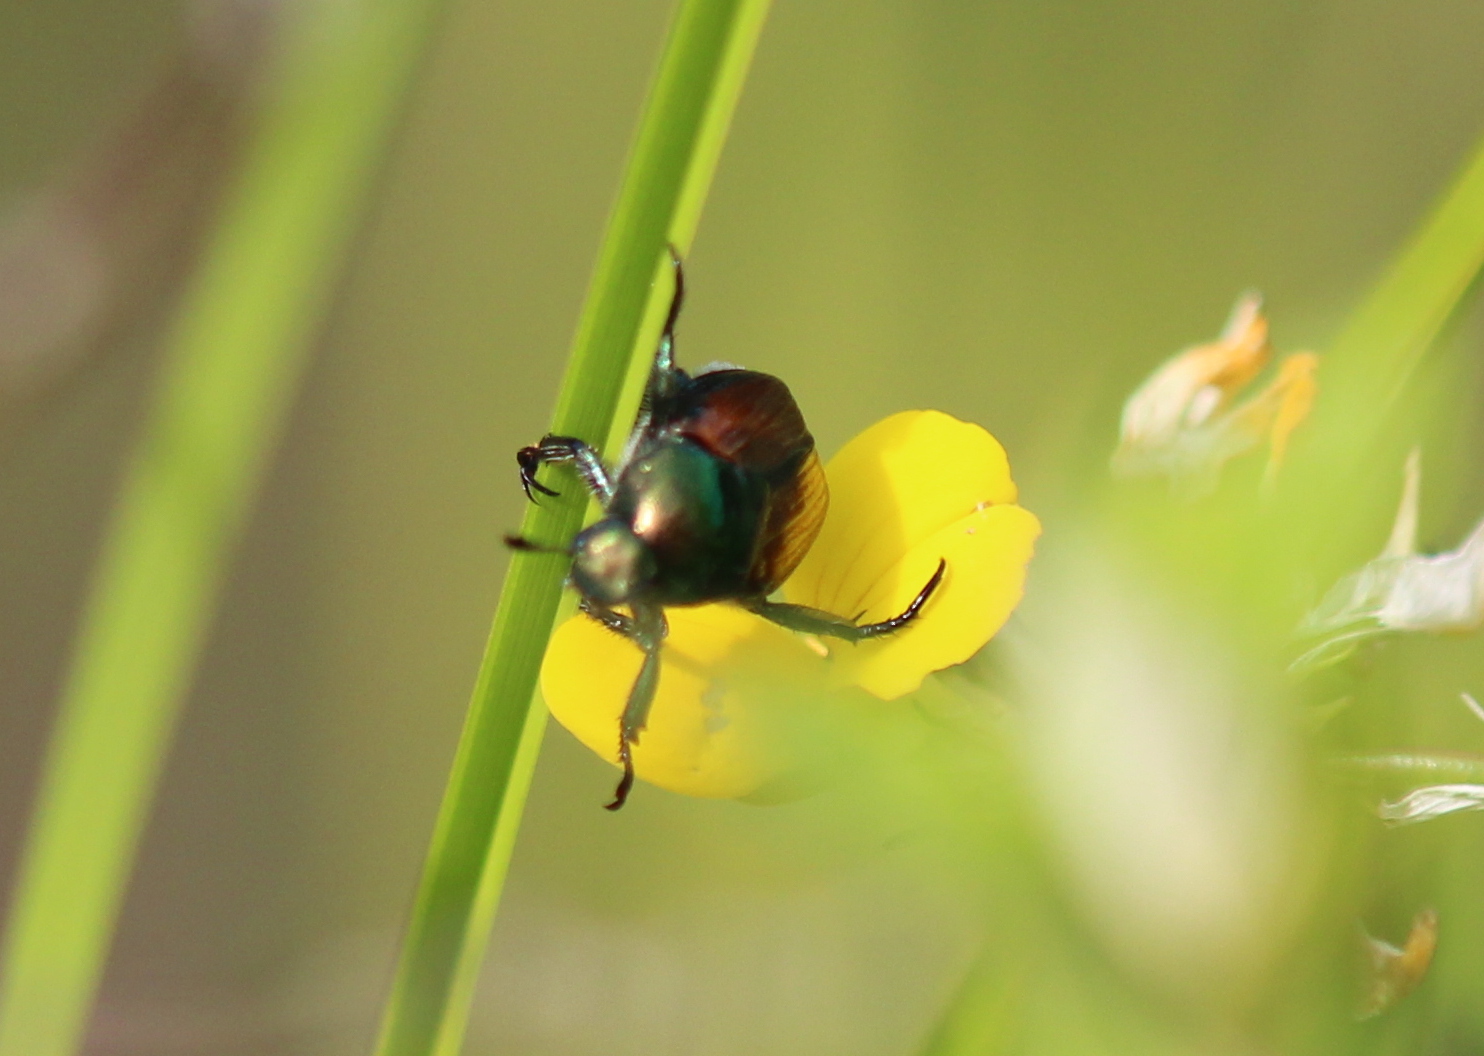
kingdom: Animalia
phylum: Arthropoda
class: Insecta
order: Coleoptera
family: Scarabaeidae
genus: Popillia
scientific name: Popillia japonica
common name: Japanese beetle
